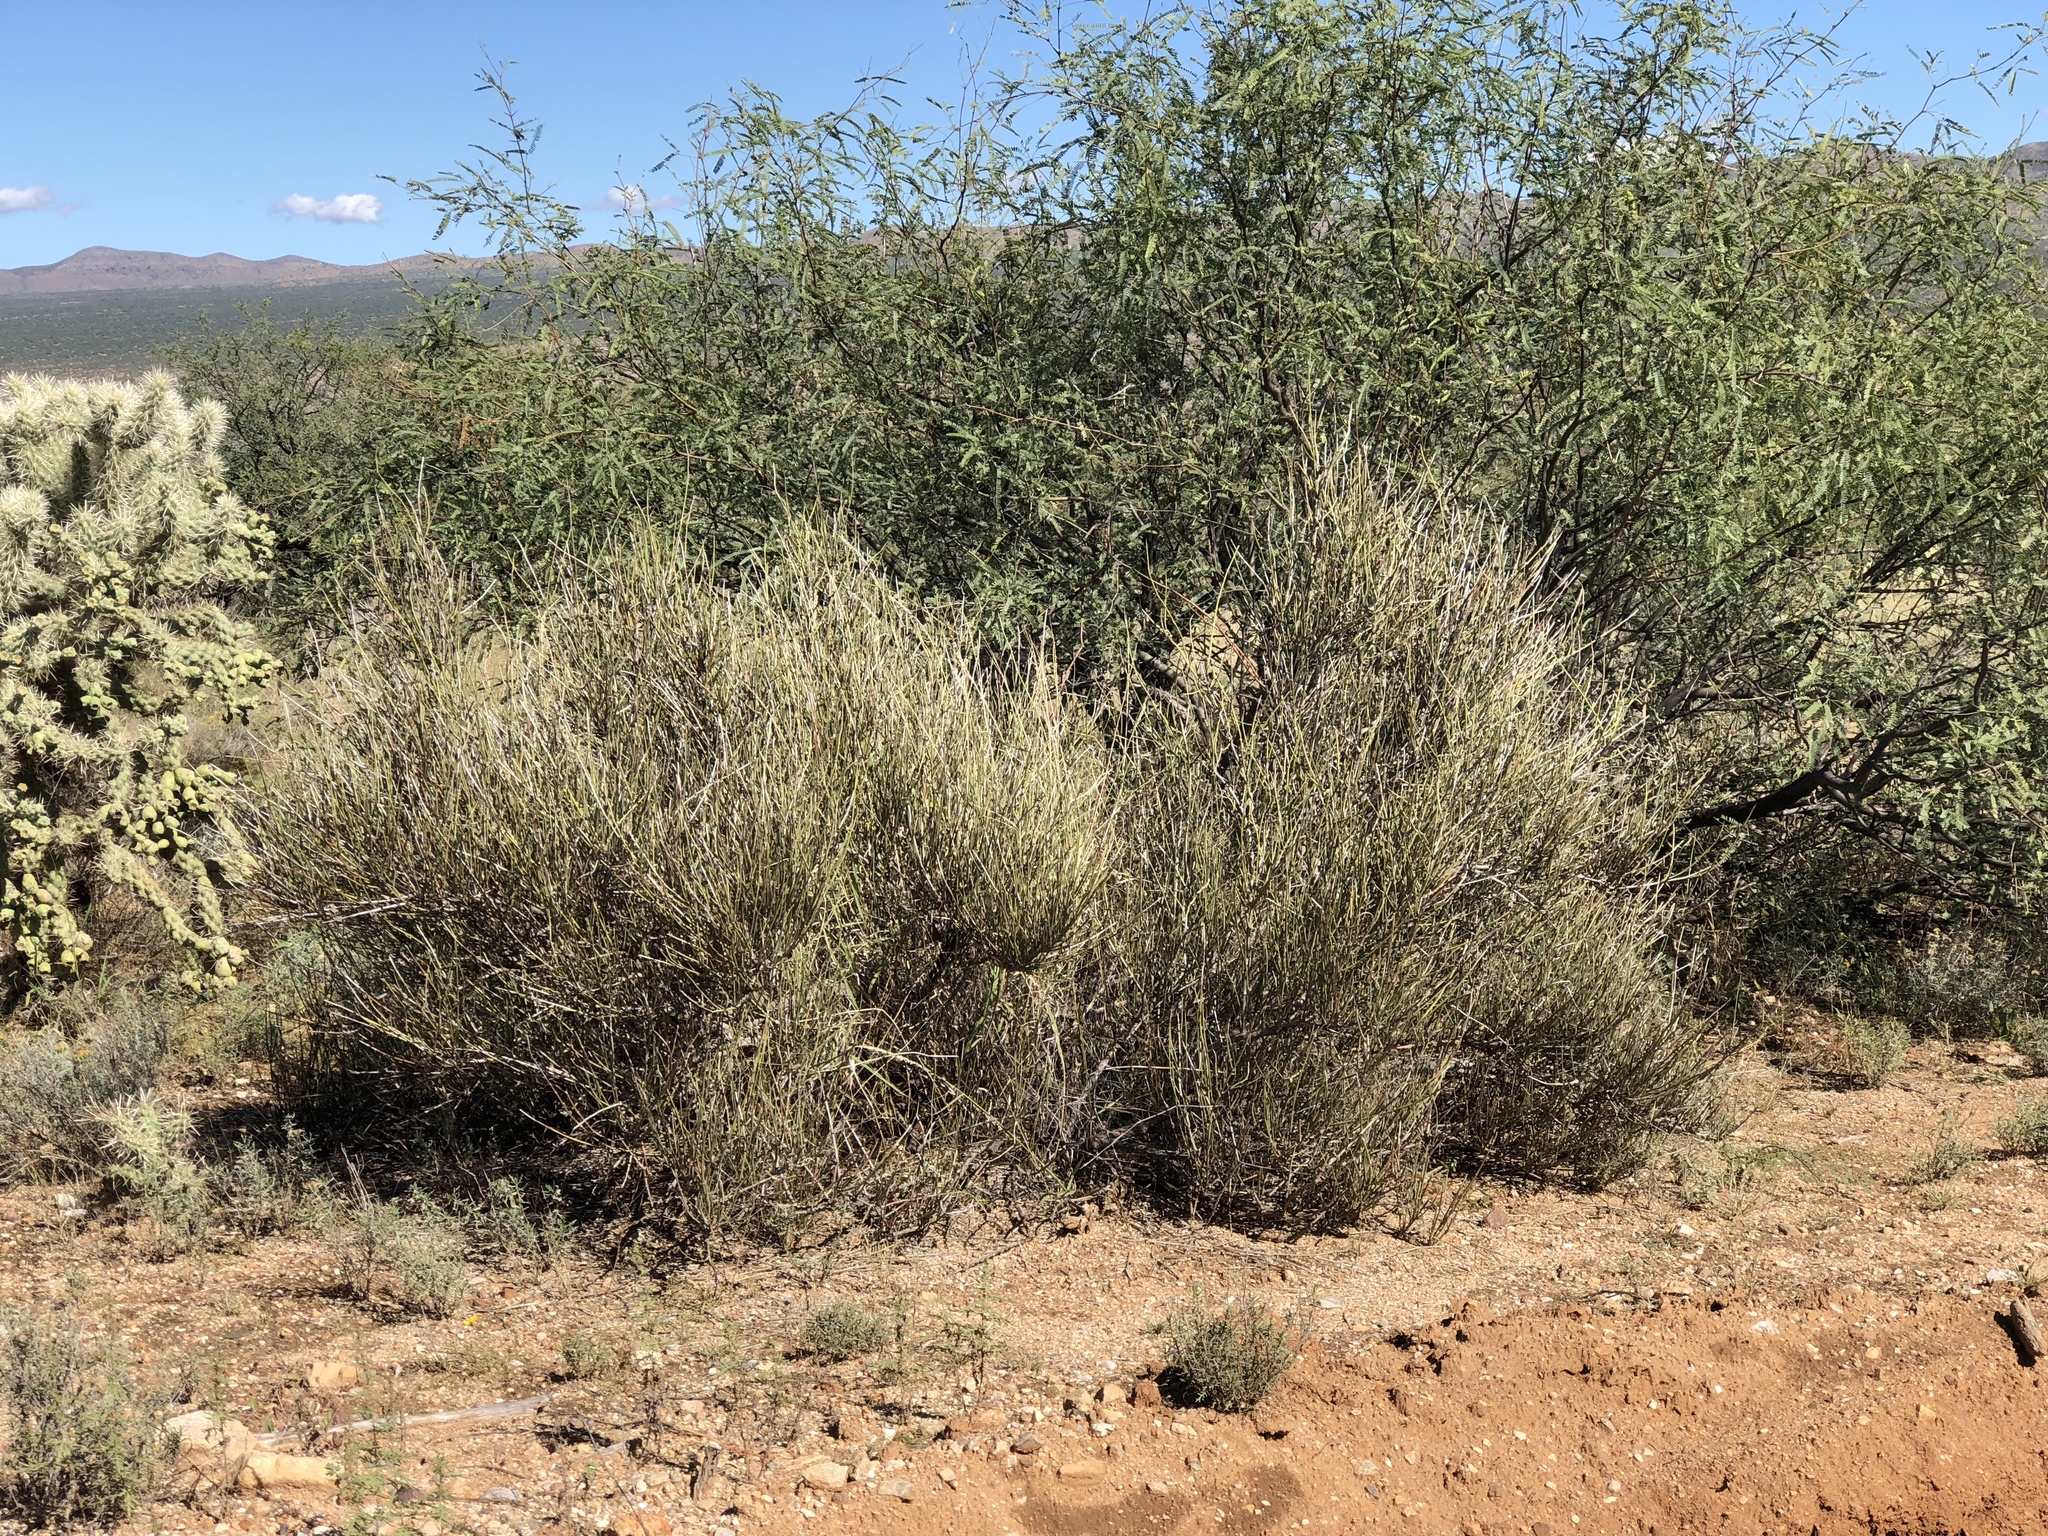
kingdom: Plantae
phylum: Tracheophyta
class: Gnetopsida
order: Ephedrales
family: Ephedraceae
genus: Ephedra
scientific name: Ephedra trifurca
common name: Mexican-tea
